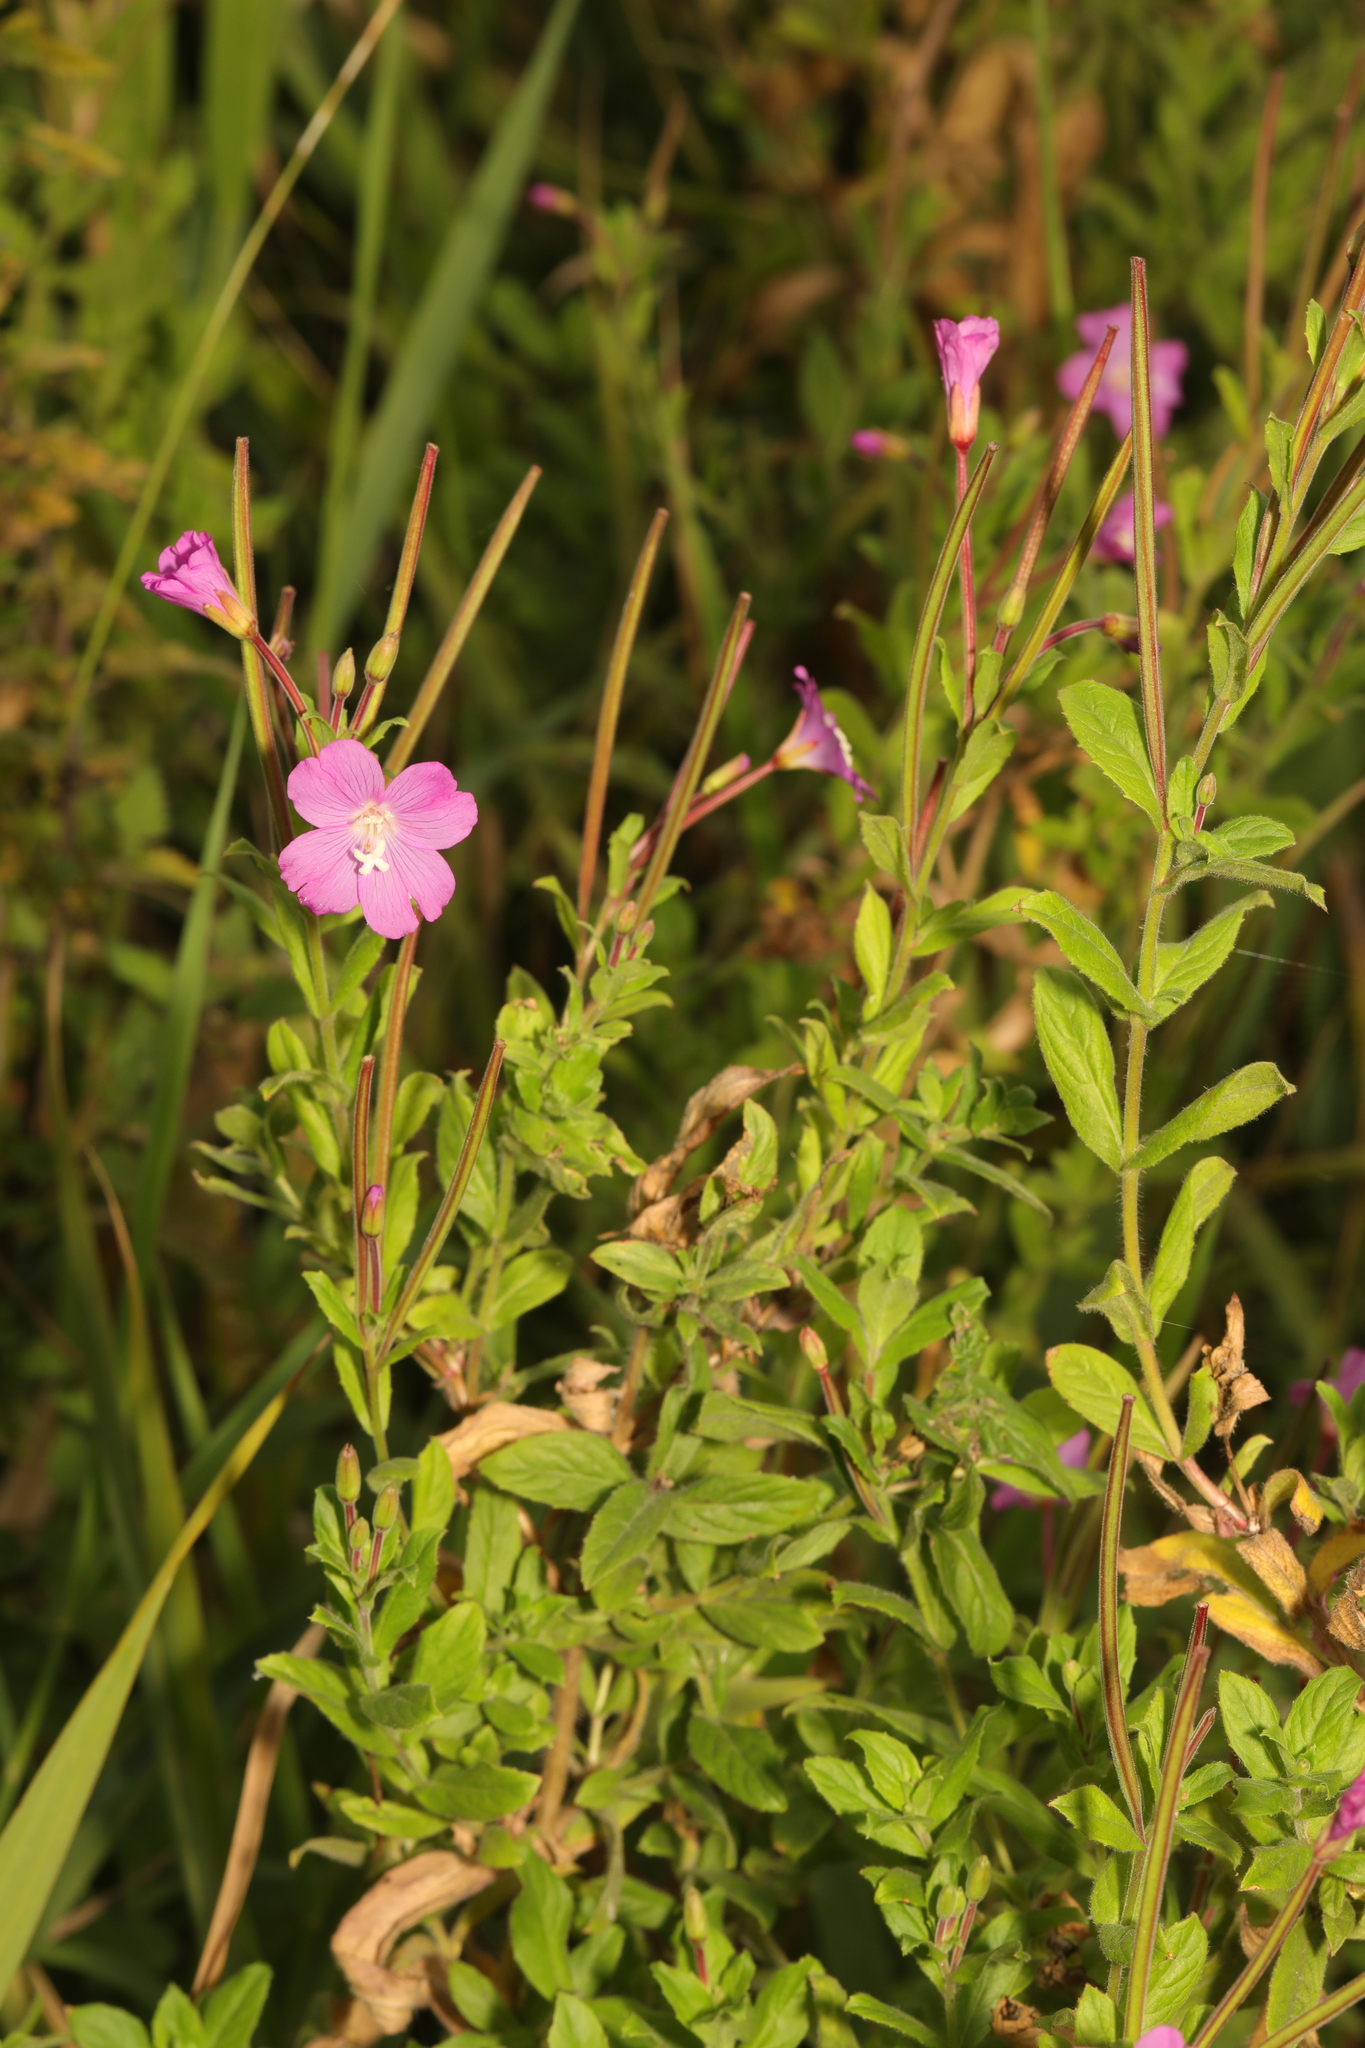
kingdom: Plantae
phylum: Tracheophyta
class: Magnoliopsida
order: Myrtales
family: Onagraceae
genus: Epilobium
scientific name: Epilobium hirsutum
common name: Great willowherb
